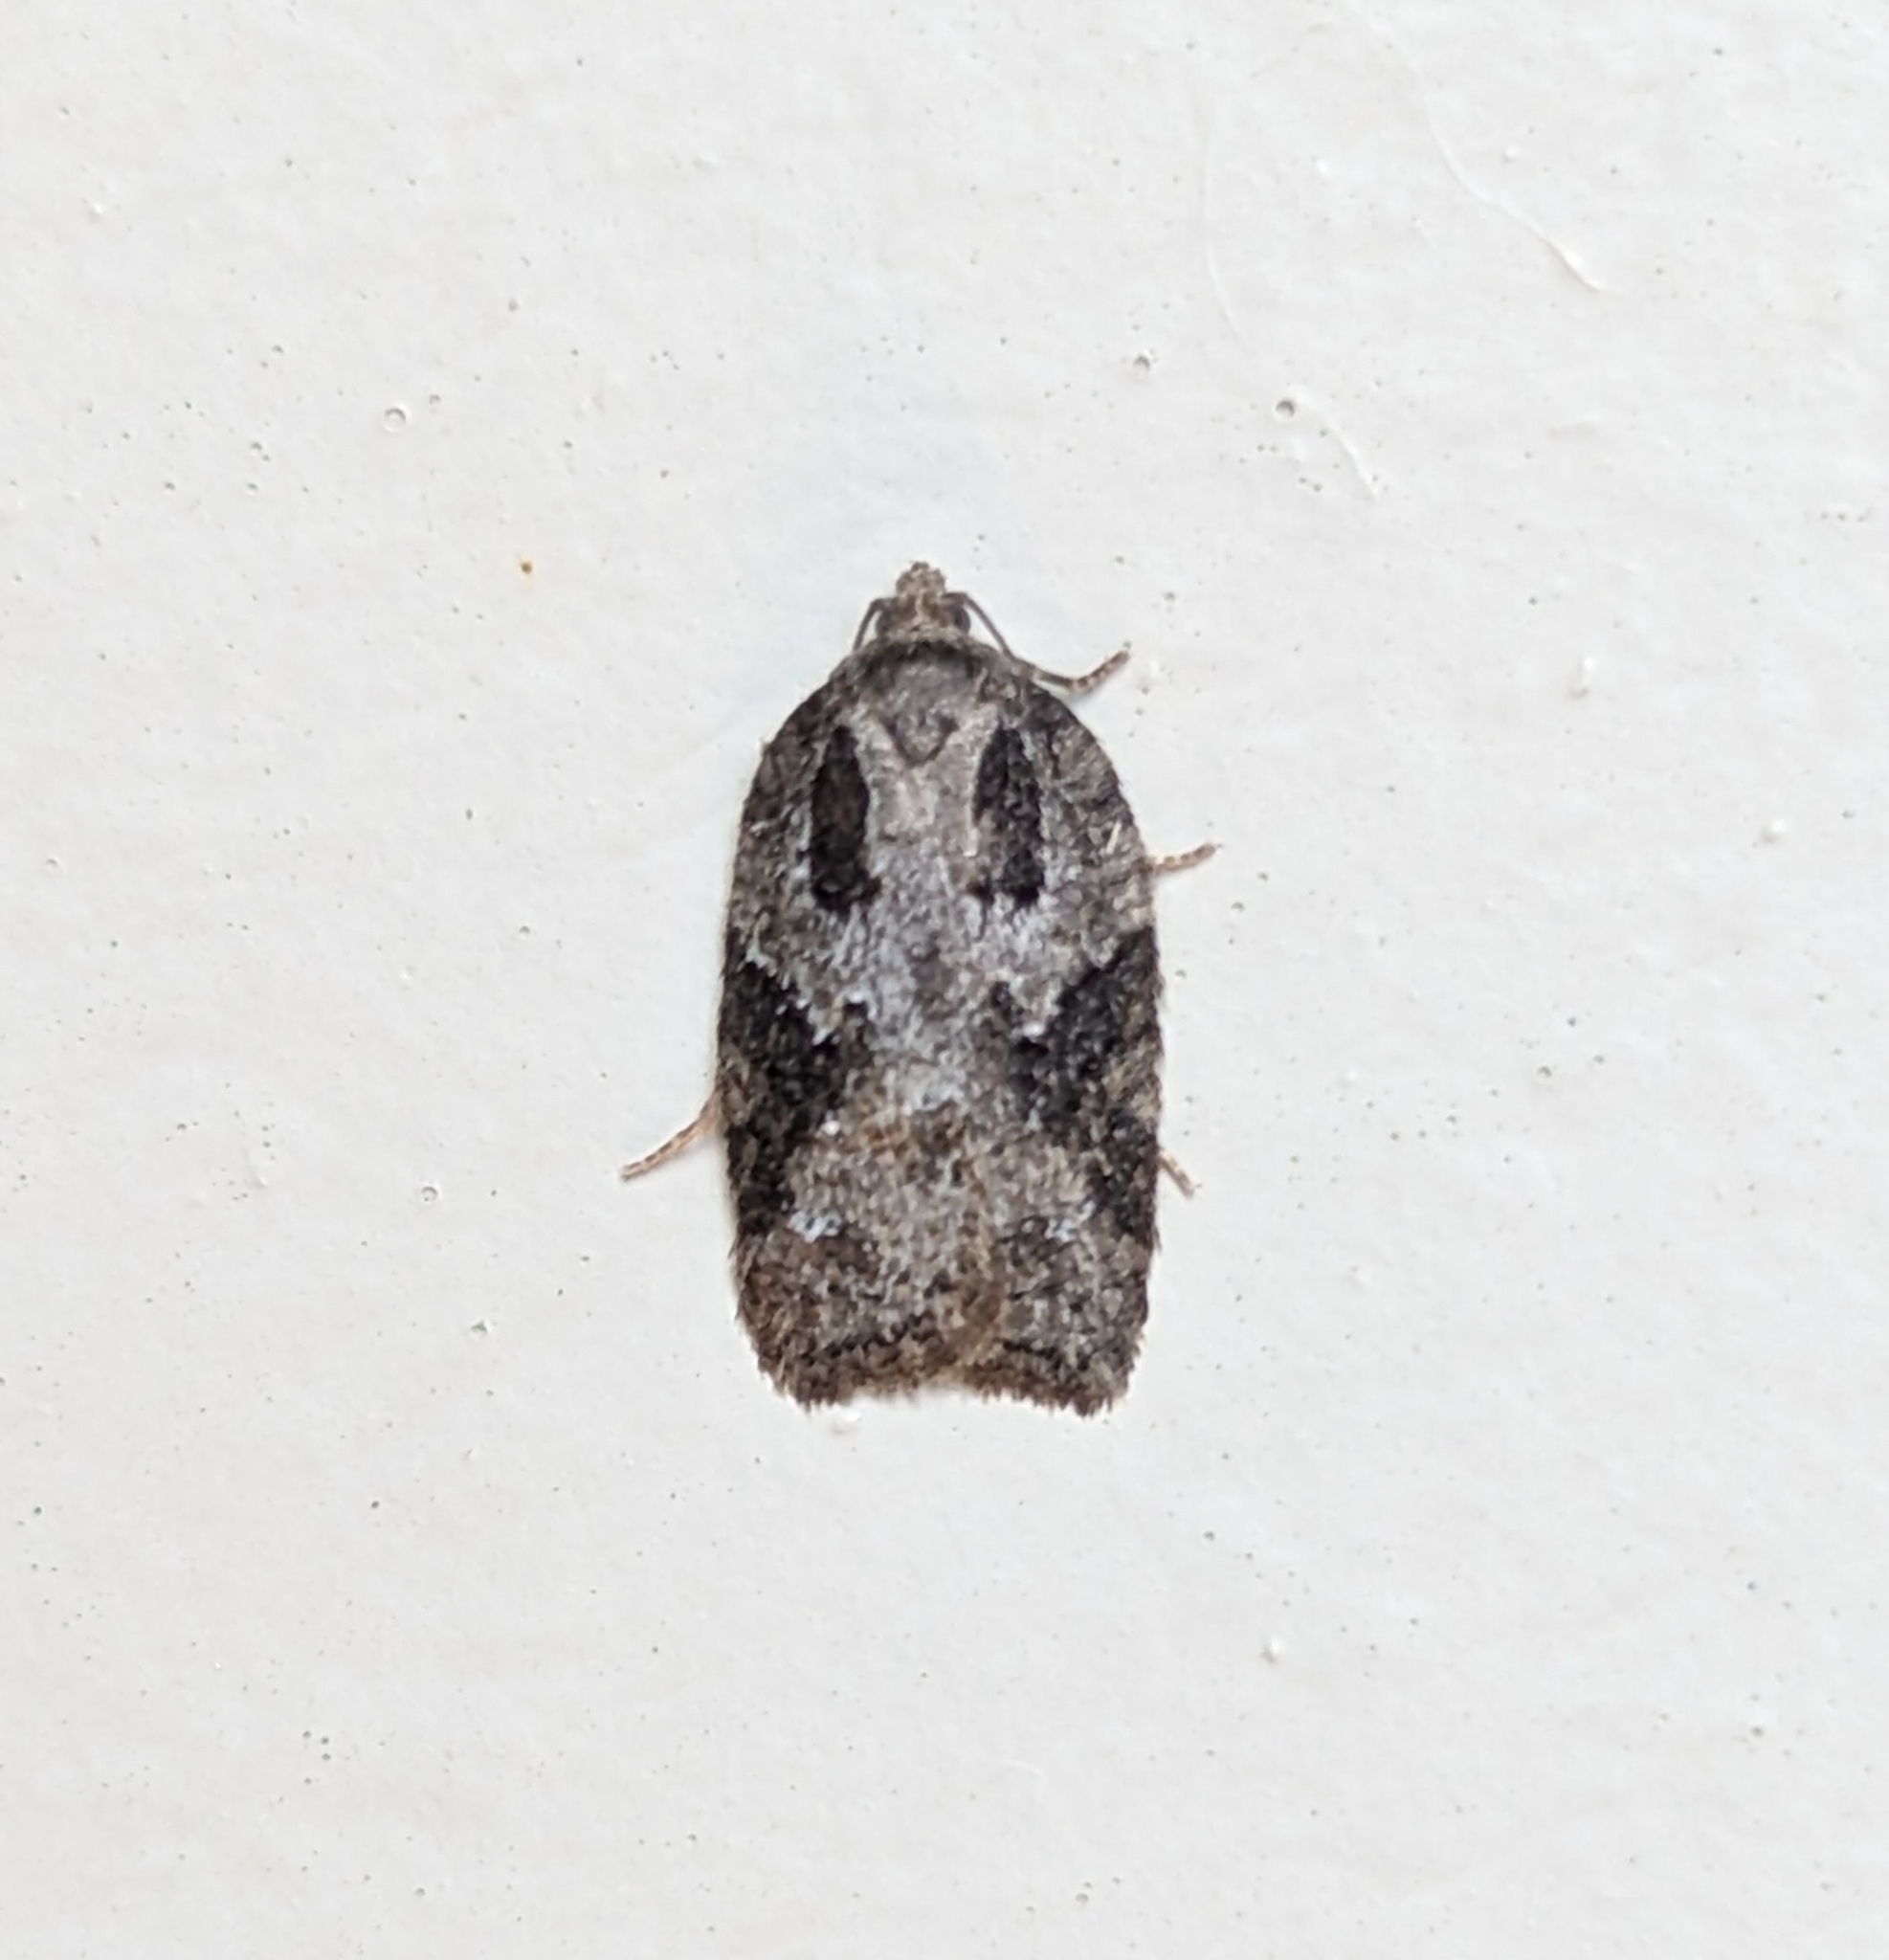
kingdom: Animalia
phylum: Arthropoda
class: Insecta
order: Lepidoptera
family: Tortricidae
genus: Acleris
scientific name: Acleris
